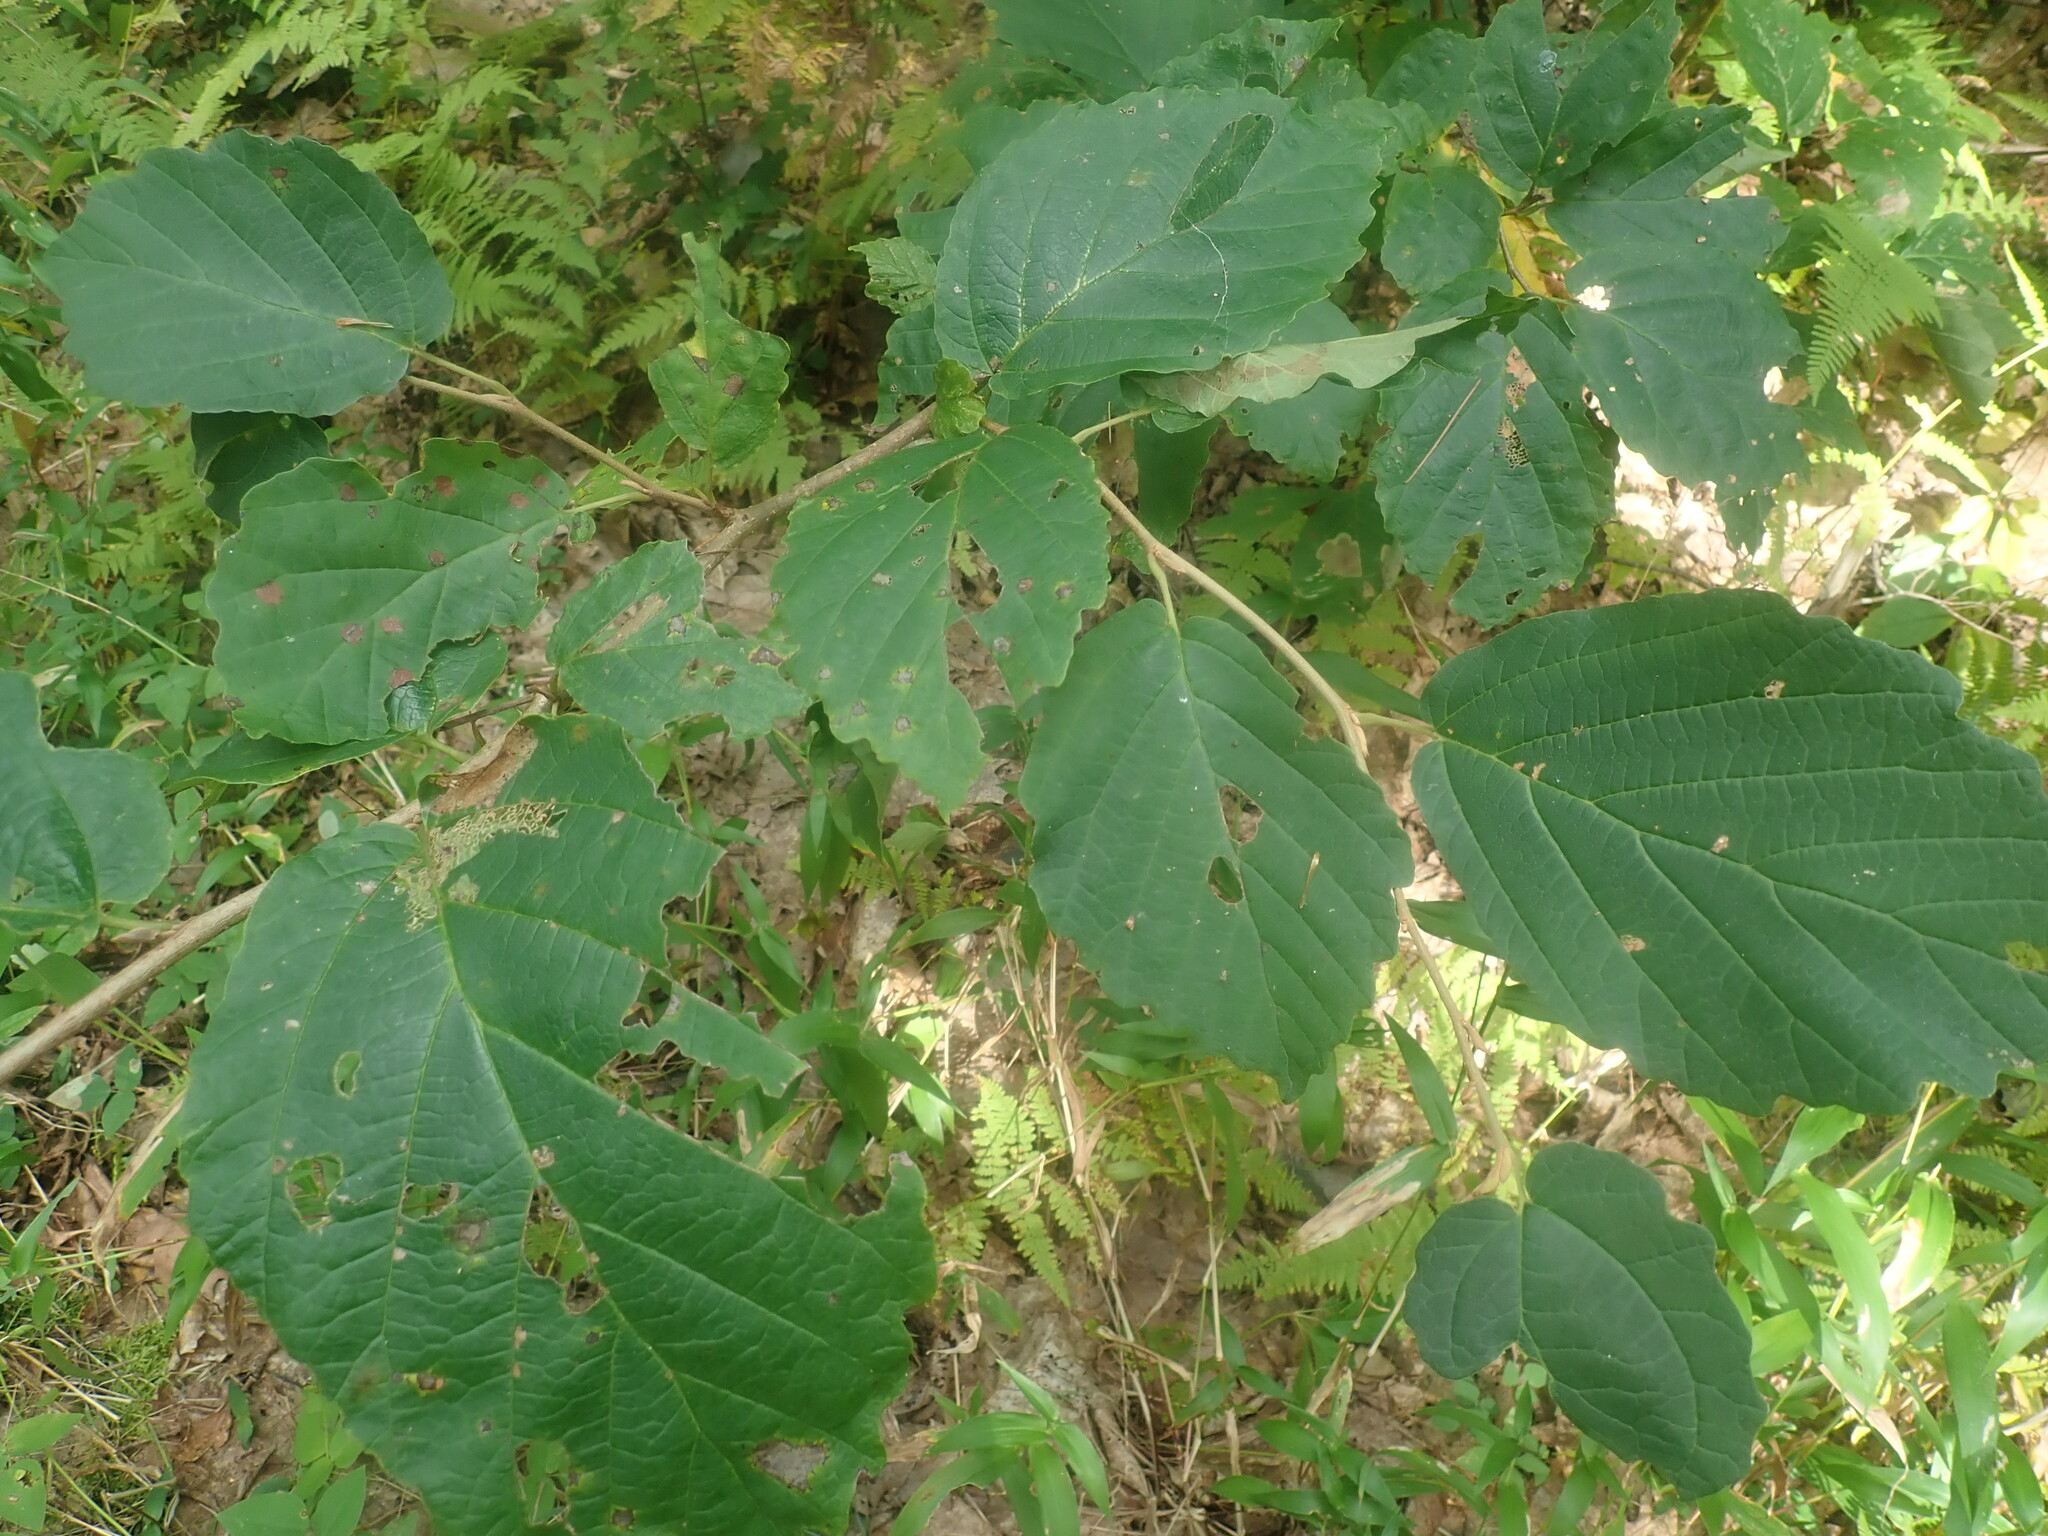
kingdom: Plantae
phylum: Tracheophyta
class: Magnoliopsida
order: Saxifragales
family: Hamamelidaceae
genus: Hamamelis
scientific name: Hamamelis virginiana
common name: Witch-hazel
